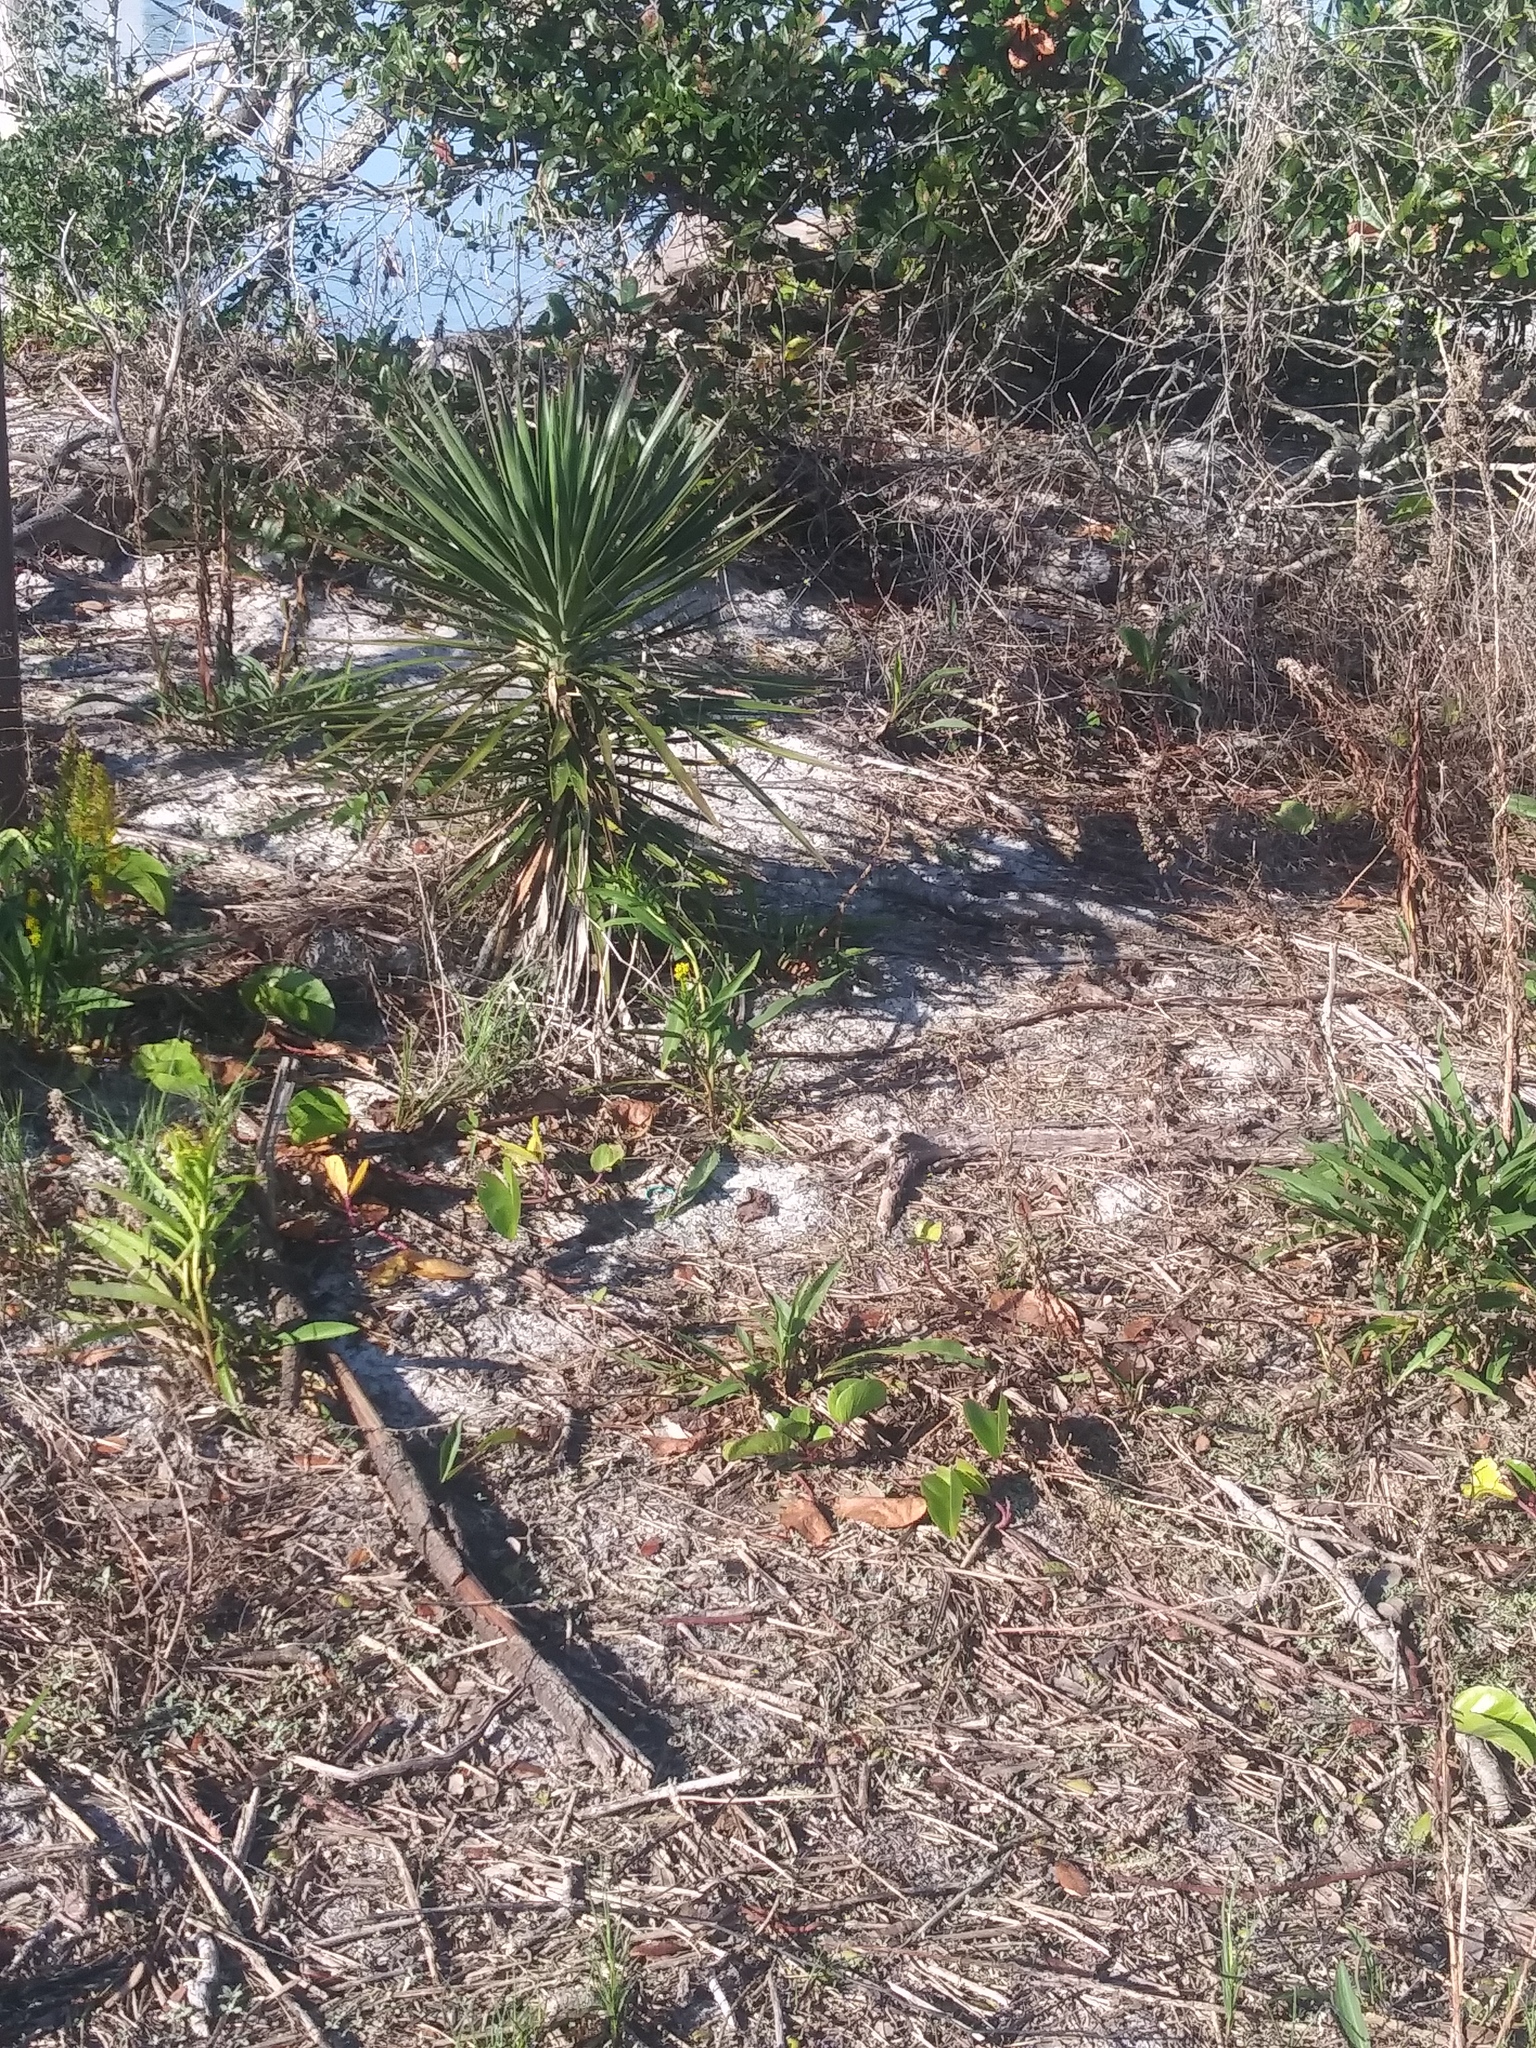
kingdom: Plantae
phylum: Tracheophyta
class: Liliopsida
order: Asparagales
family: Asparagaceae
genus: Yucca
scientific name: Yucca aloifolia
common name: Aloe yucca
